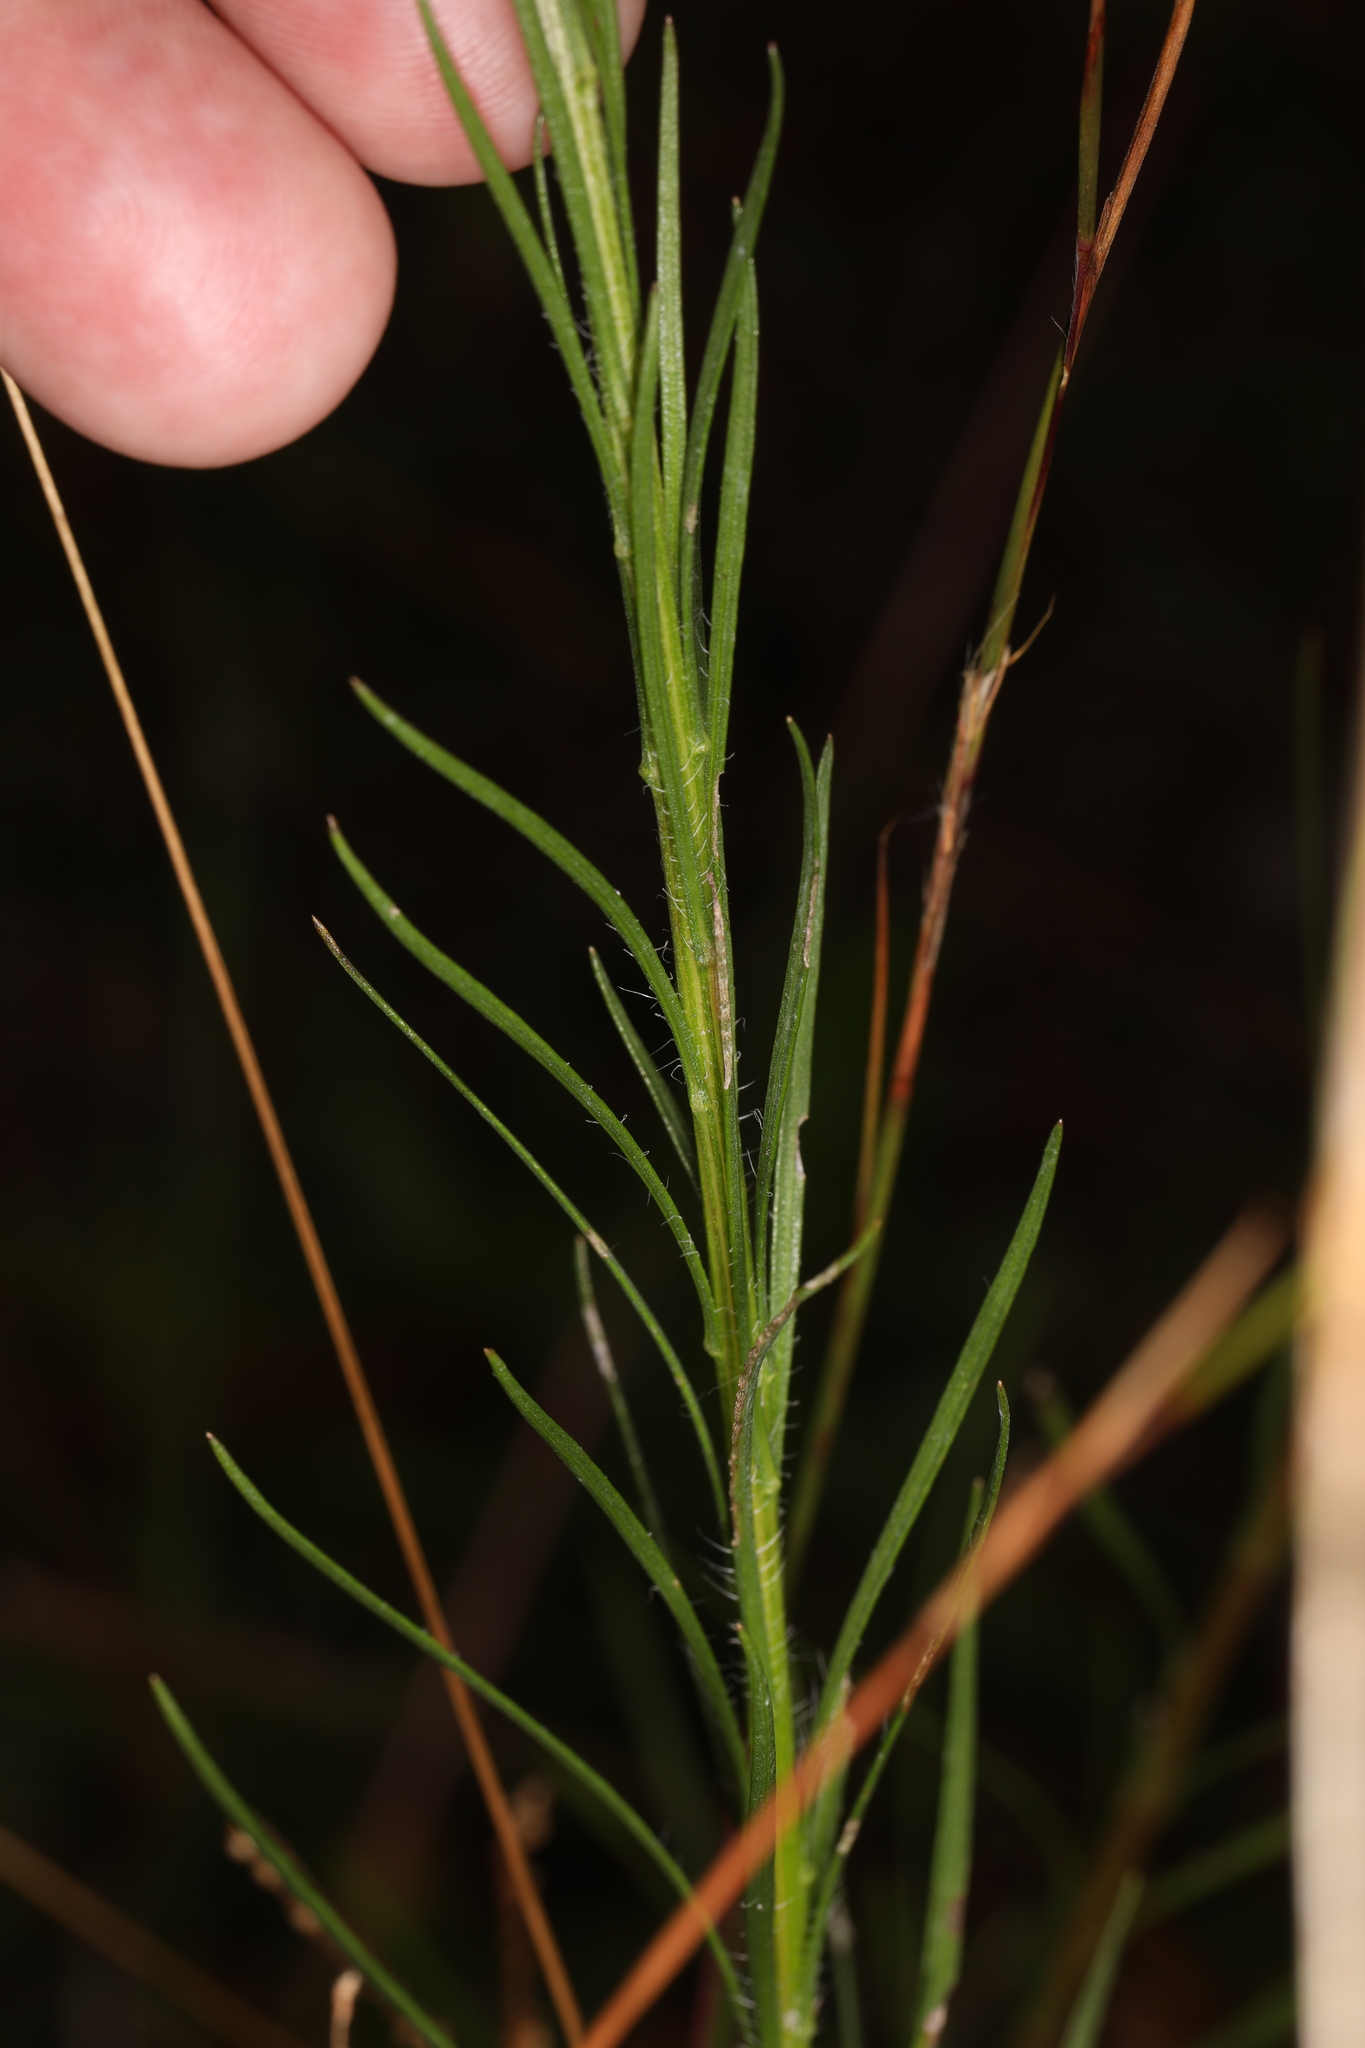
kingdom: Plantae
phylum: Tracheophyta
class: Magnoliopsida
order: Gentianales
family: Gentianaceae
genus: Gentiana
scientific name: Gentiana autumnalis
